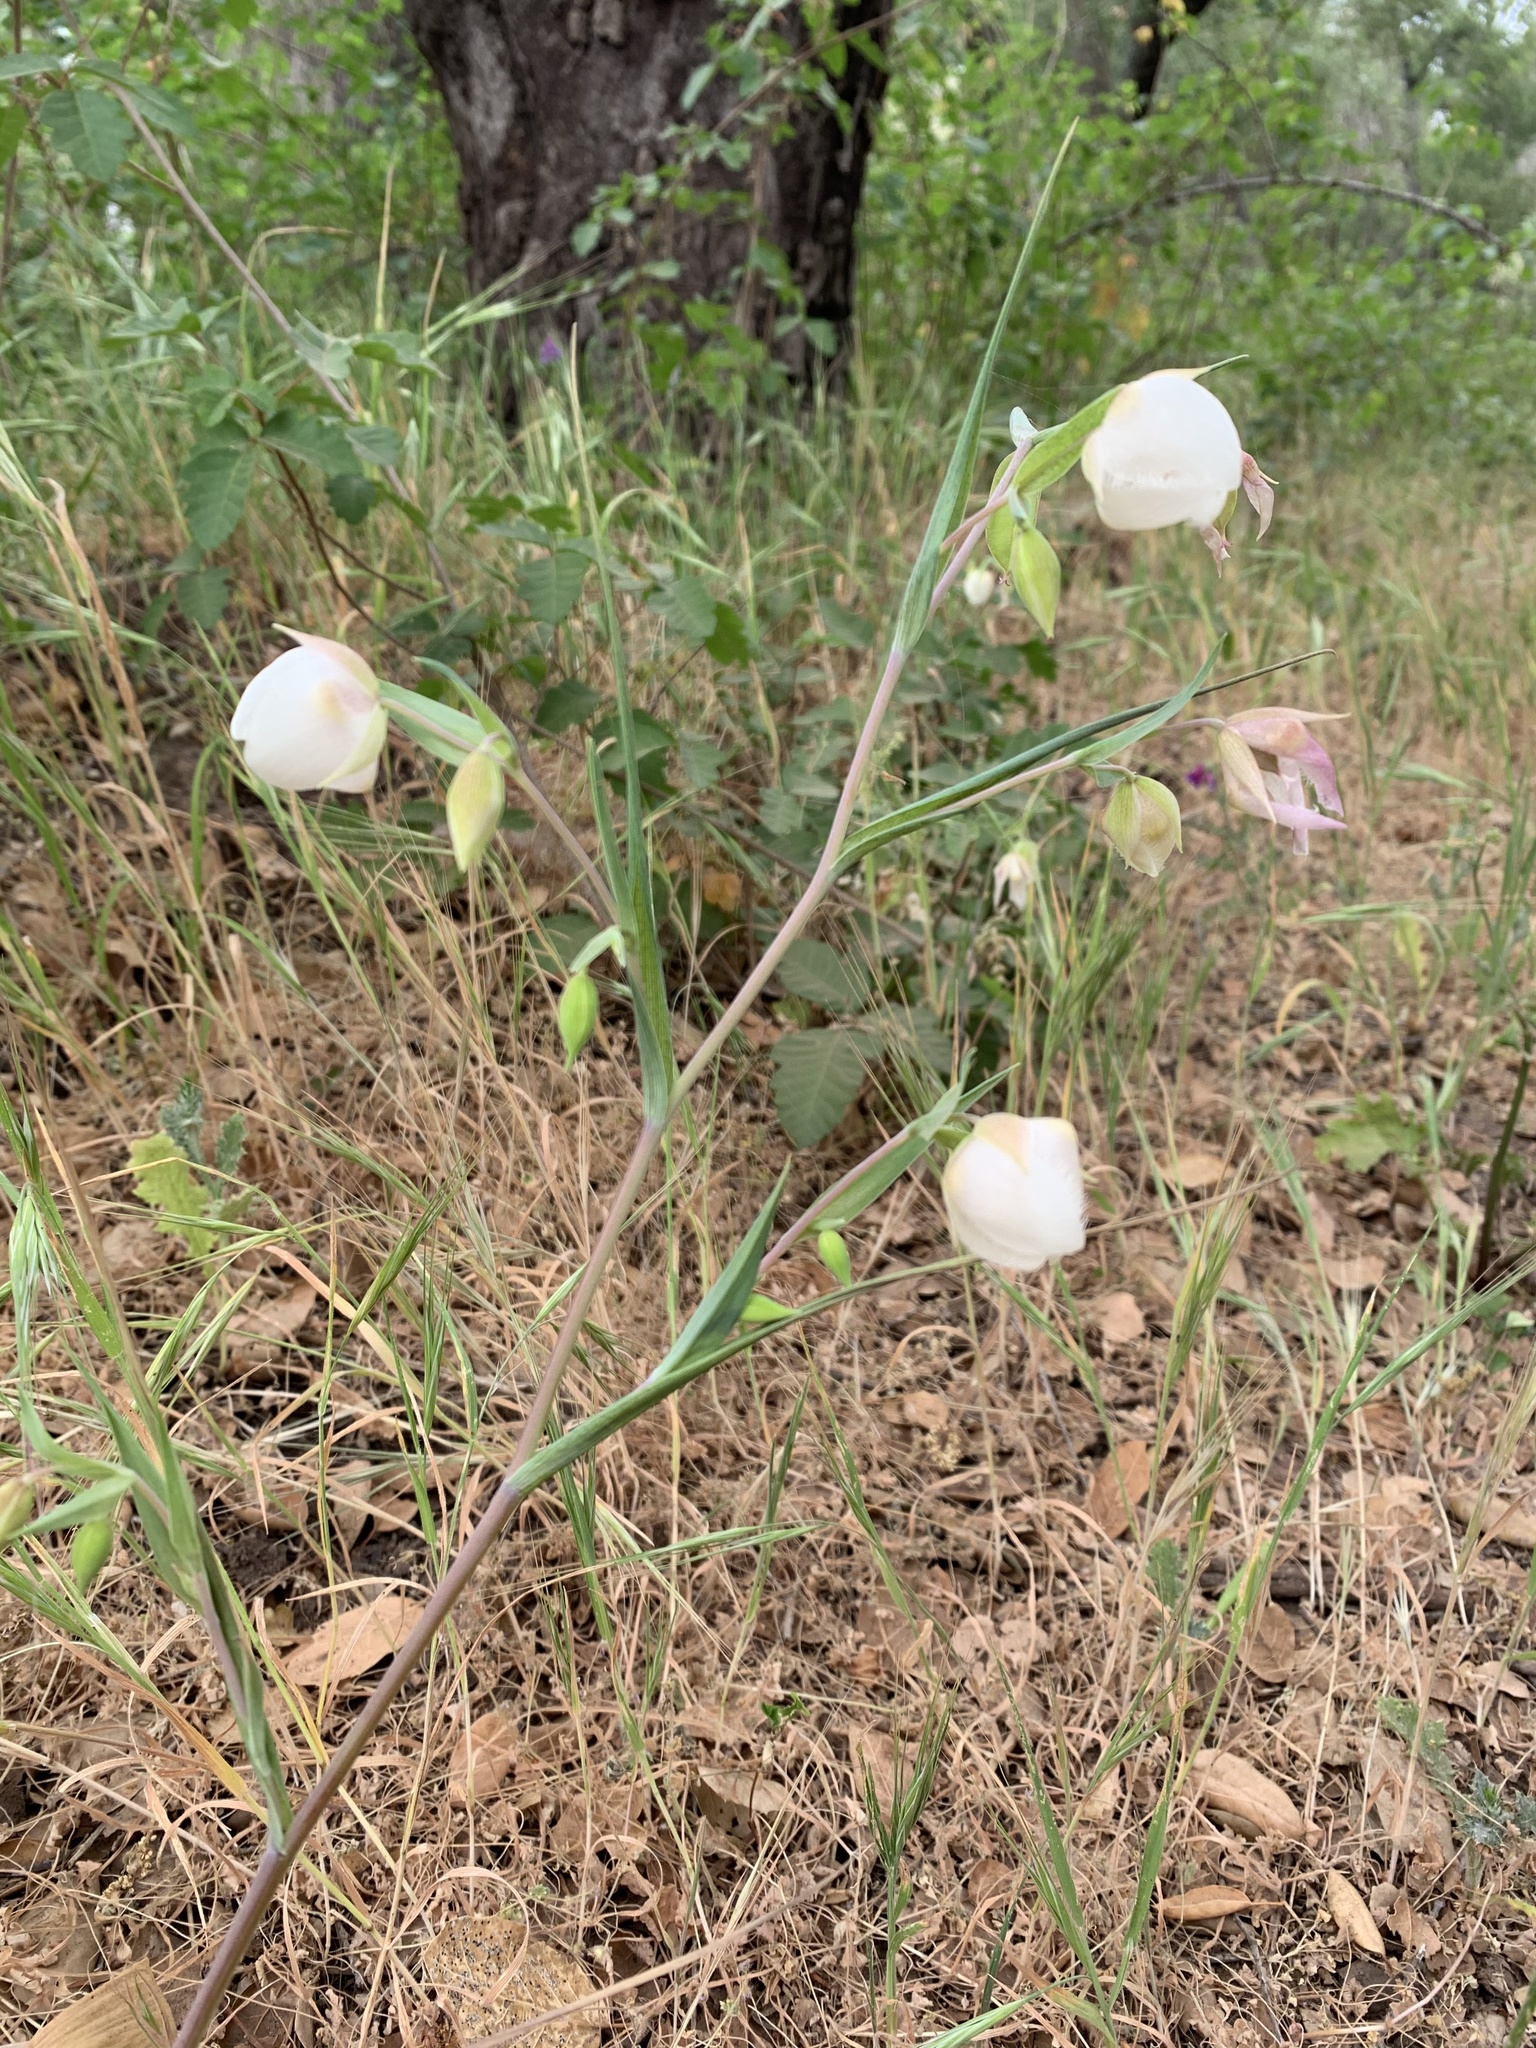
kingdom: Plantae
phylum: Tracheophyta
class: Liliopsida
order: Liliales
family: Liliaceae
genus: Calochortus
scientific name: Calochortus albus
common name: Fairy-lantern
